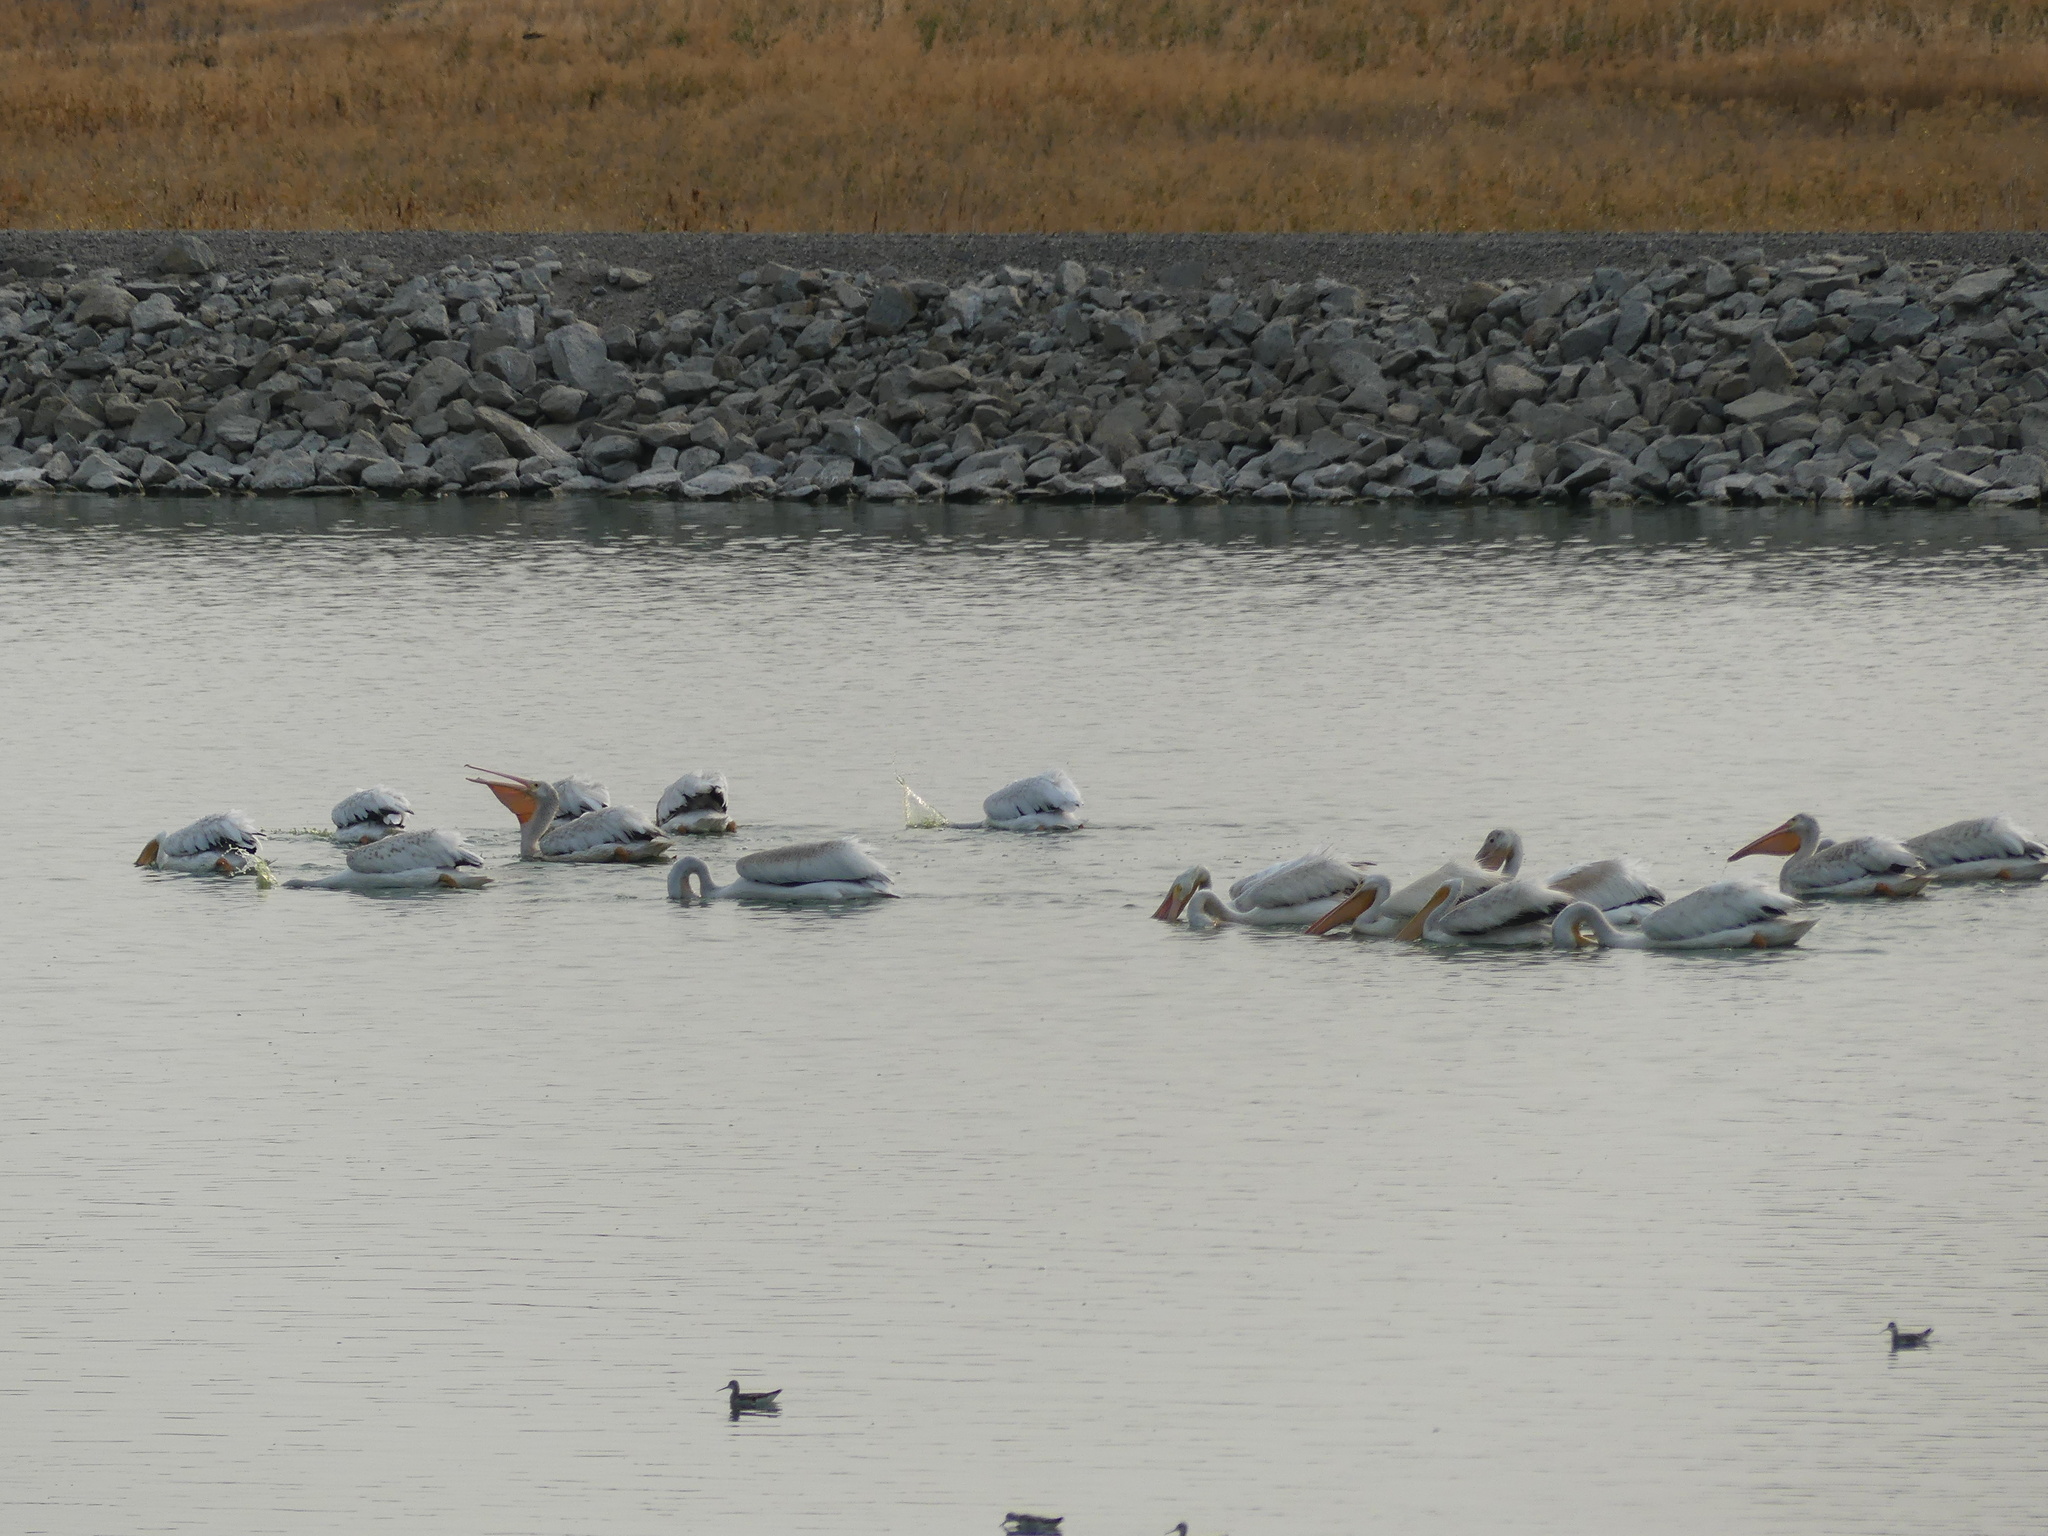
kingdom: Animalia
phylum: Chordata
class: Aves
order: Pelecaniformes
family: Pelecanidae
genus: Pelecanus
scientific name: Pelecanus erythrorhynchos
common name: American white pelican
